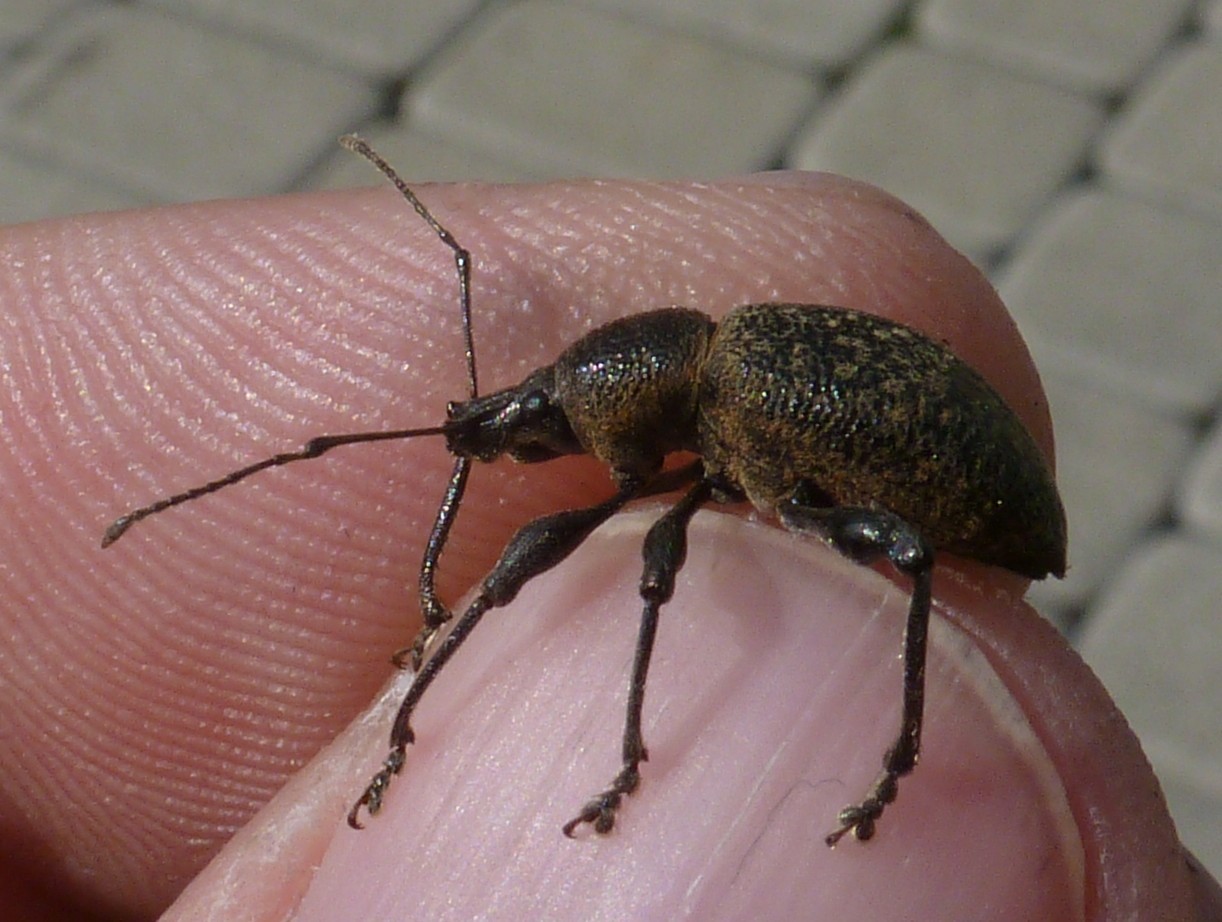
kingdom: Animalia
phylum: Arthropoda
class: Insecta
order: Coleoptera
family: Curculionidae
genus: Otiorhynchus
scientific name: Otiorhynchus armadillo
